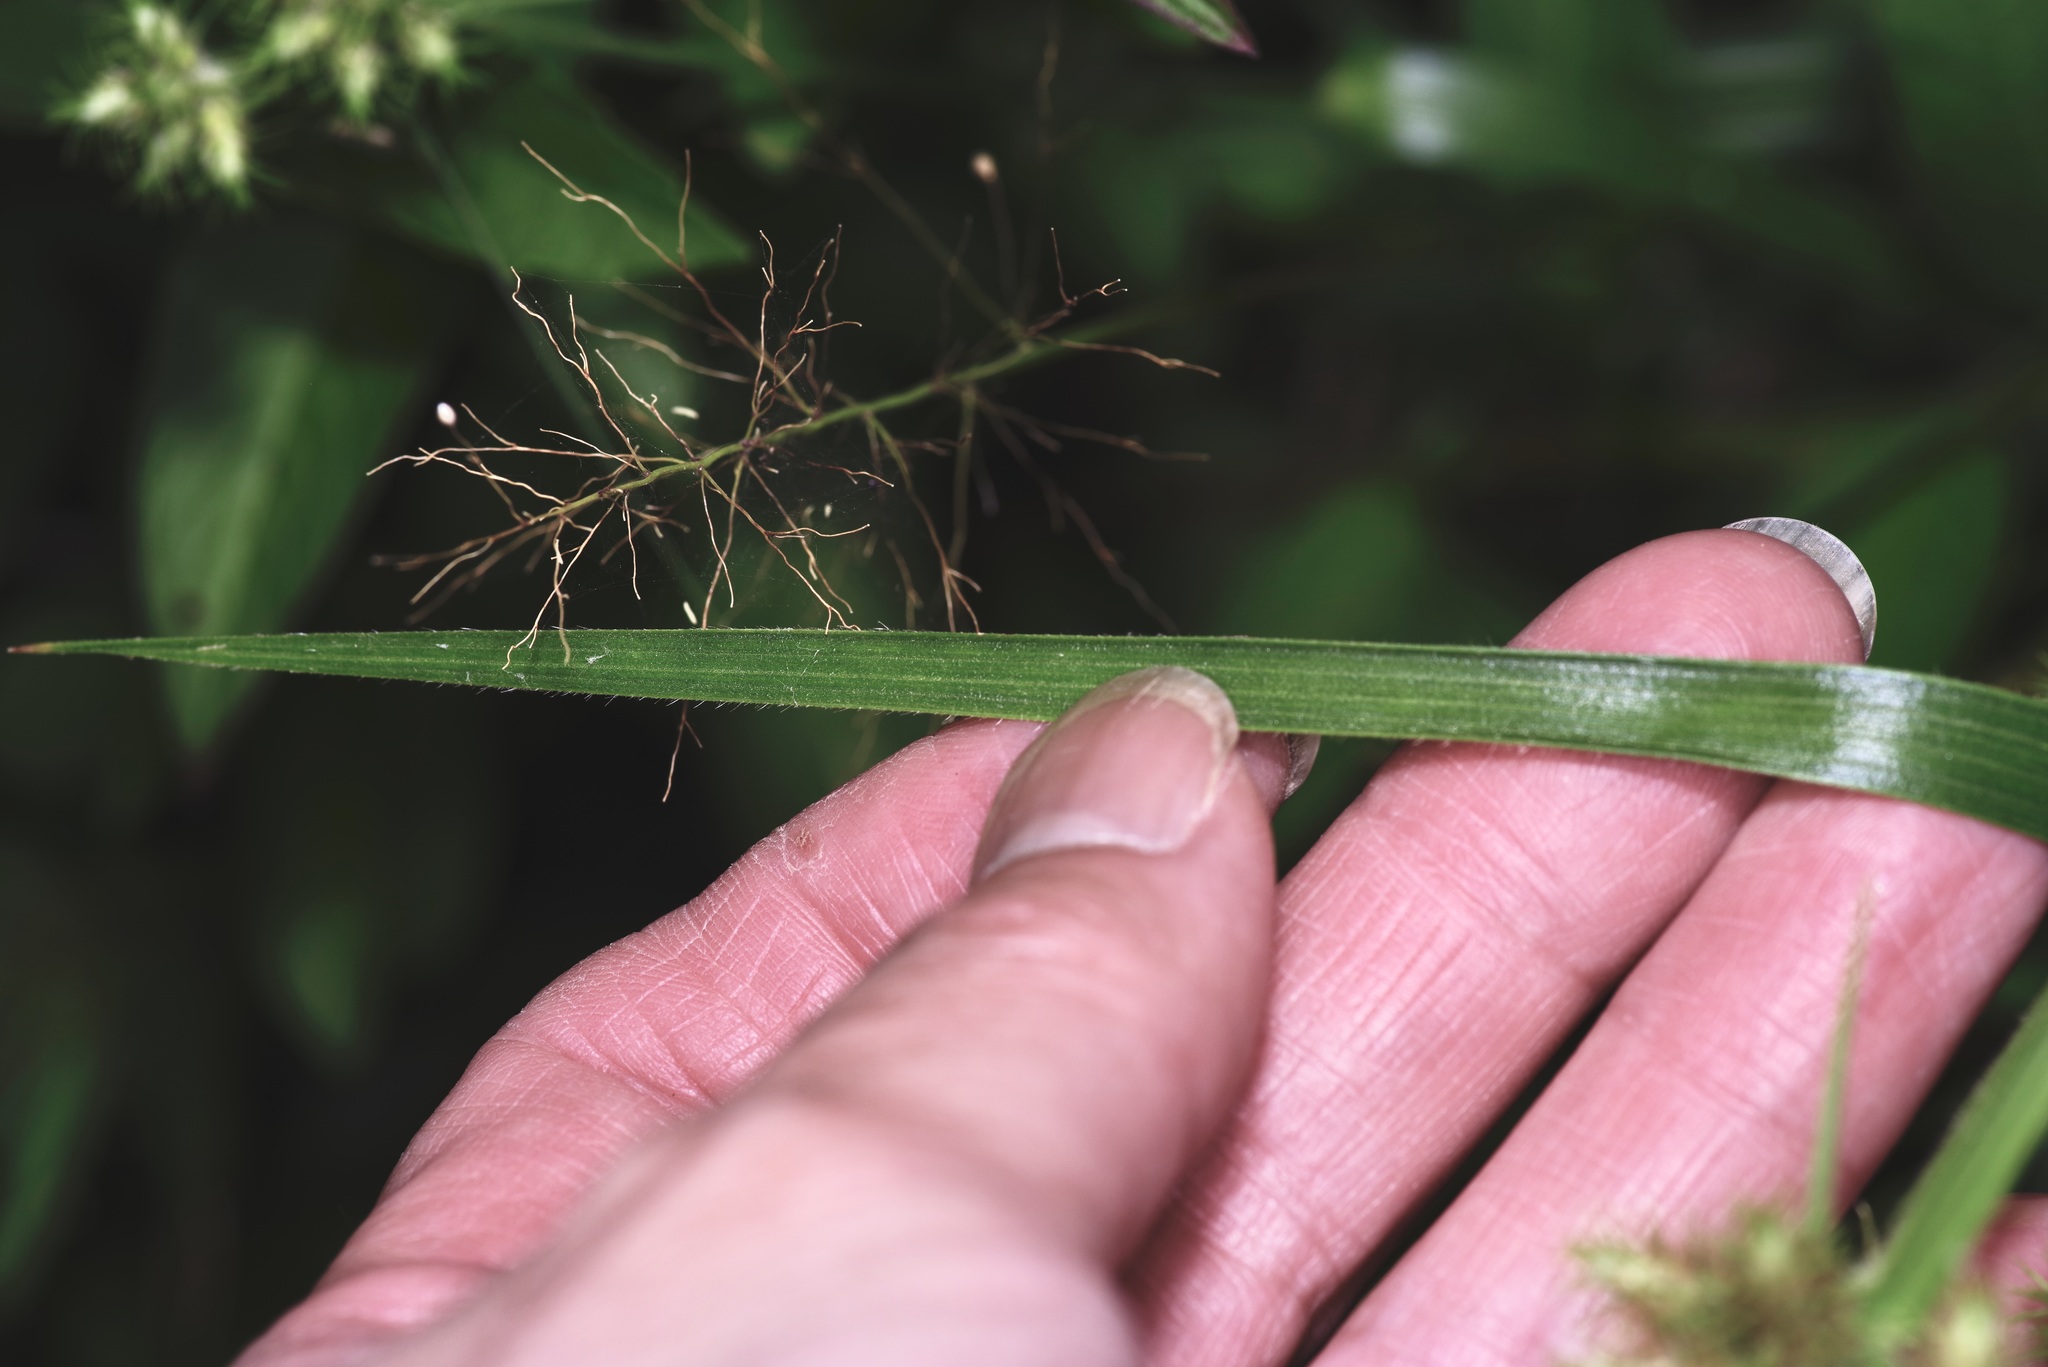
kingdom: Plantae
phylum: Tracheophyta
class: Liliopsida
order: Poales
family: Cyperaceae
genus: Fuirena
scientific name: Fuirena simplex
